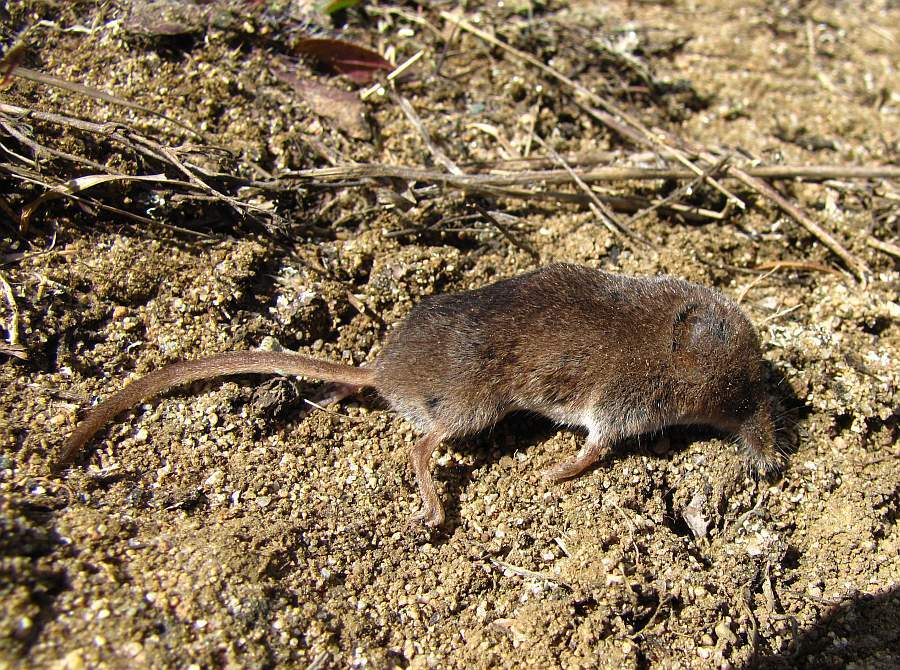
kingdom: Animalia
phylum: Chordata
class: Mammalia
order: Soricomorpha
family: Soricidae
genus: Sorex
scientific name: Sorex cinereus
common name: Cinereus shrew
